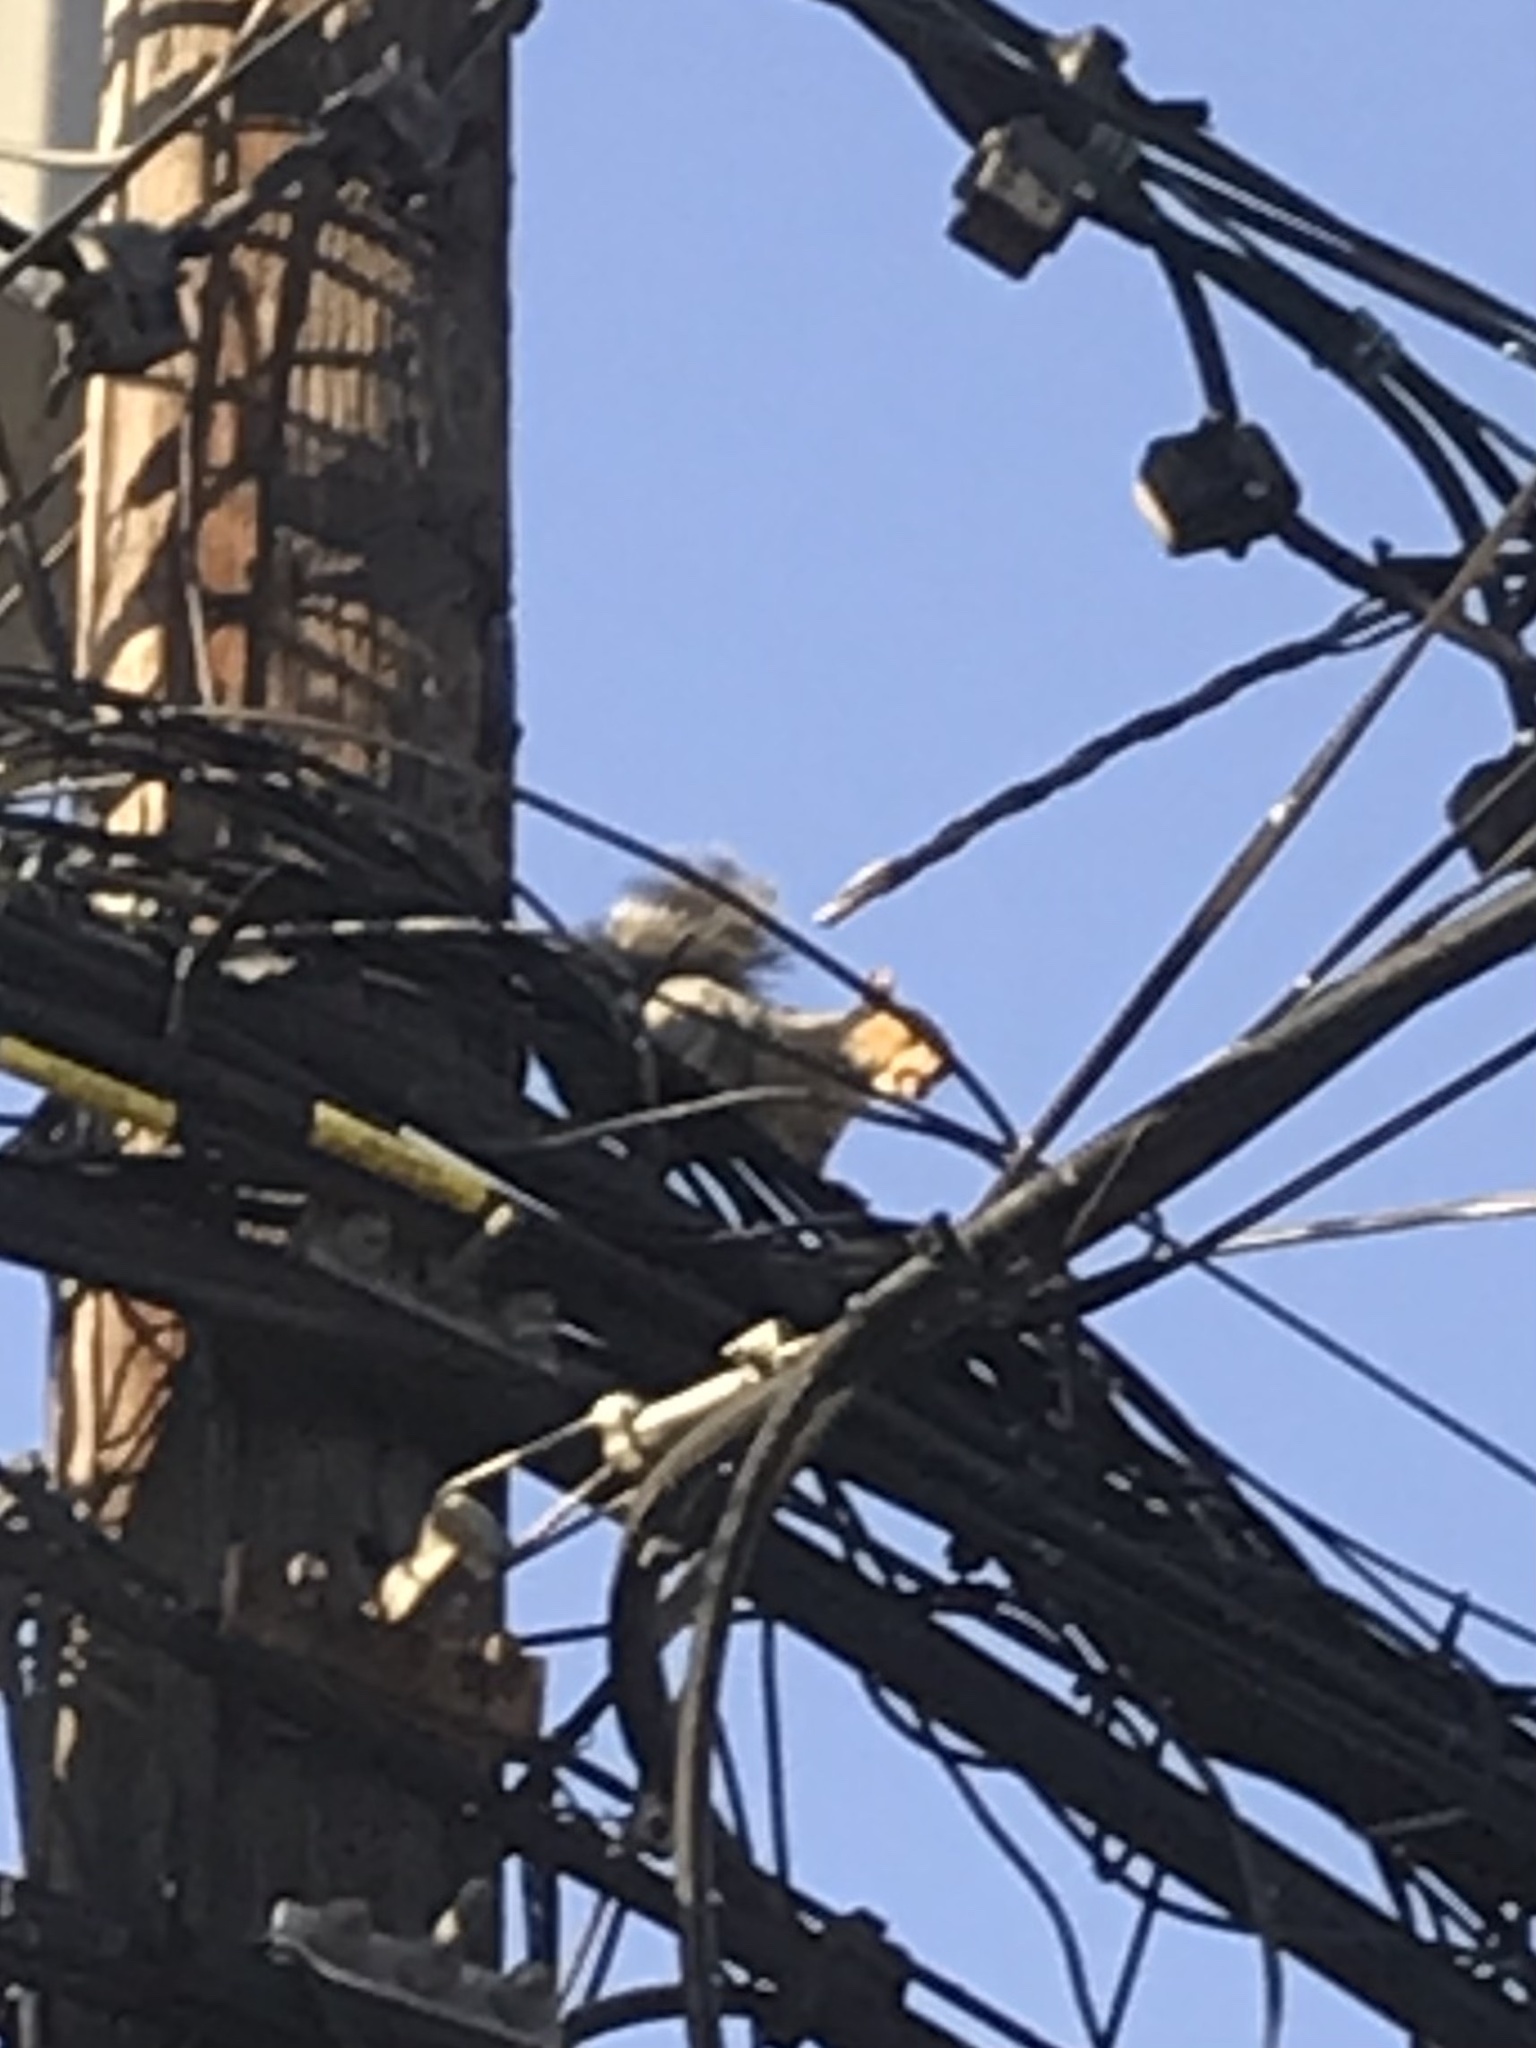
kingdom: Animalia
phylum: Chordata
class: Mammalia
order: Rodentia
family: Sciuridae
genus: Sciurus
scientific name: Sciurus carolinensis
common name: Eastern gray squirrel
